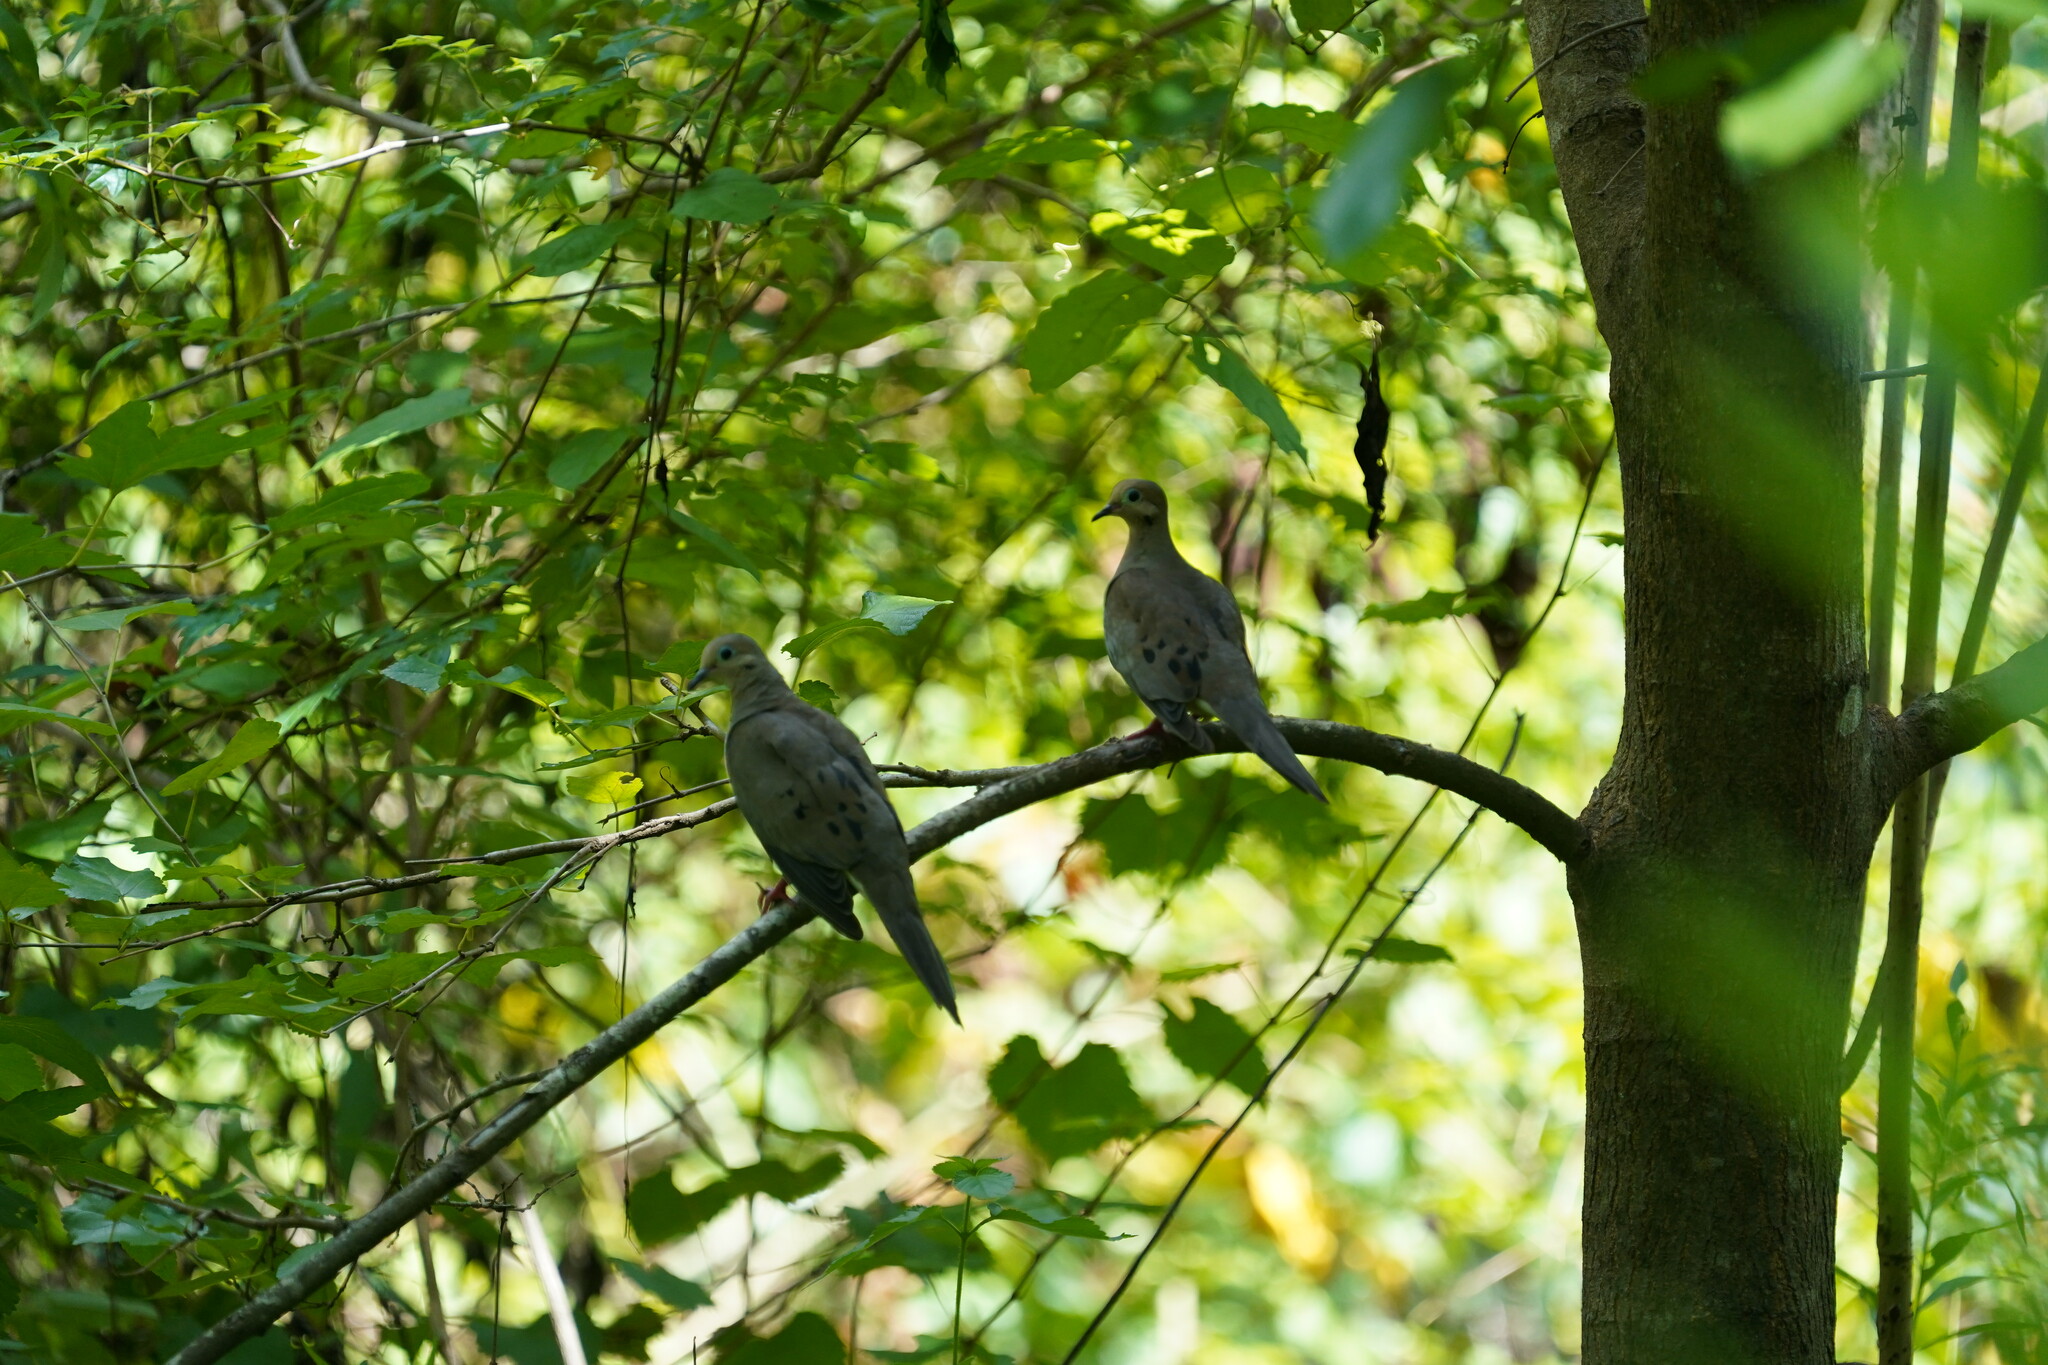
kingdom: Animalia
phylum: Chordata
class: Aves
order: Columbiformes
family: Columbidae
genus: Zenaida
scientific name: Zenaida macroura
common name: Mourning dove
